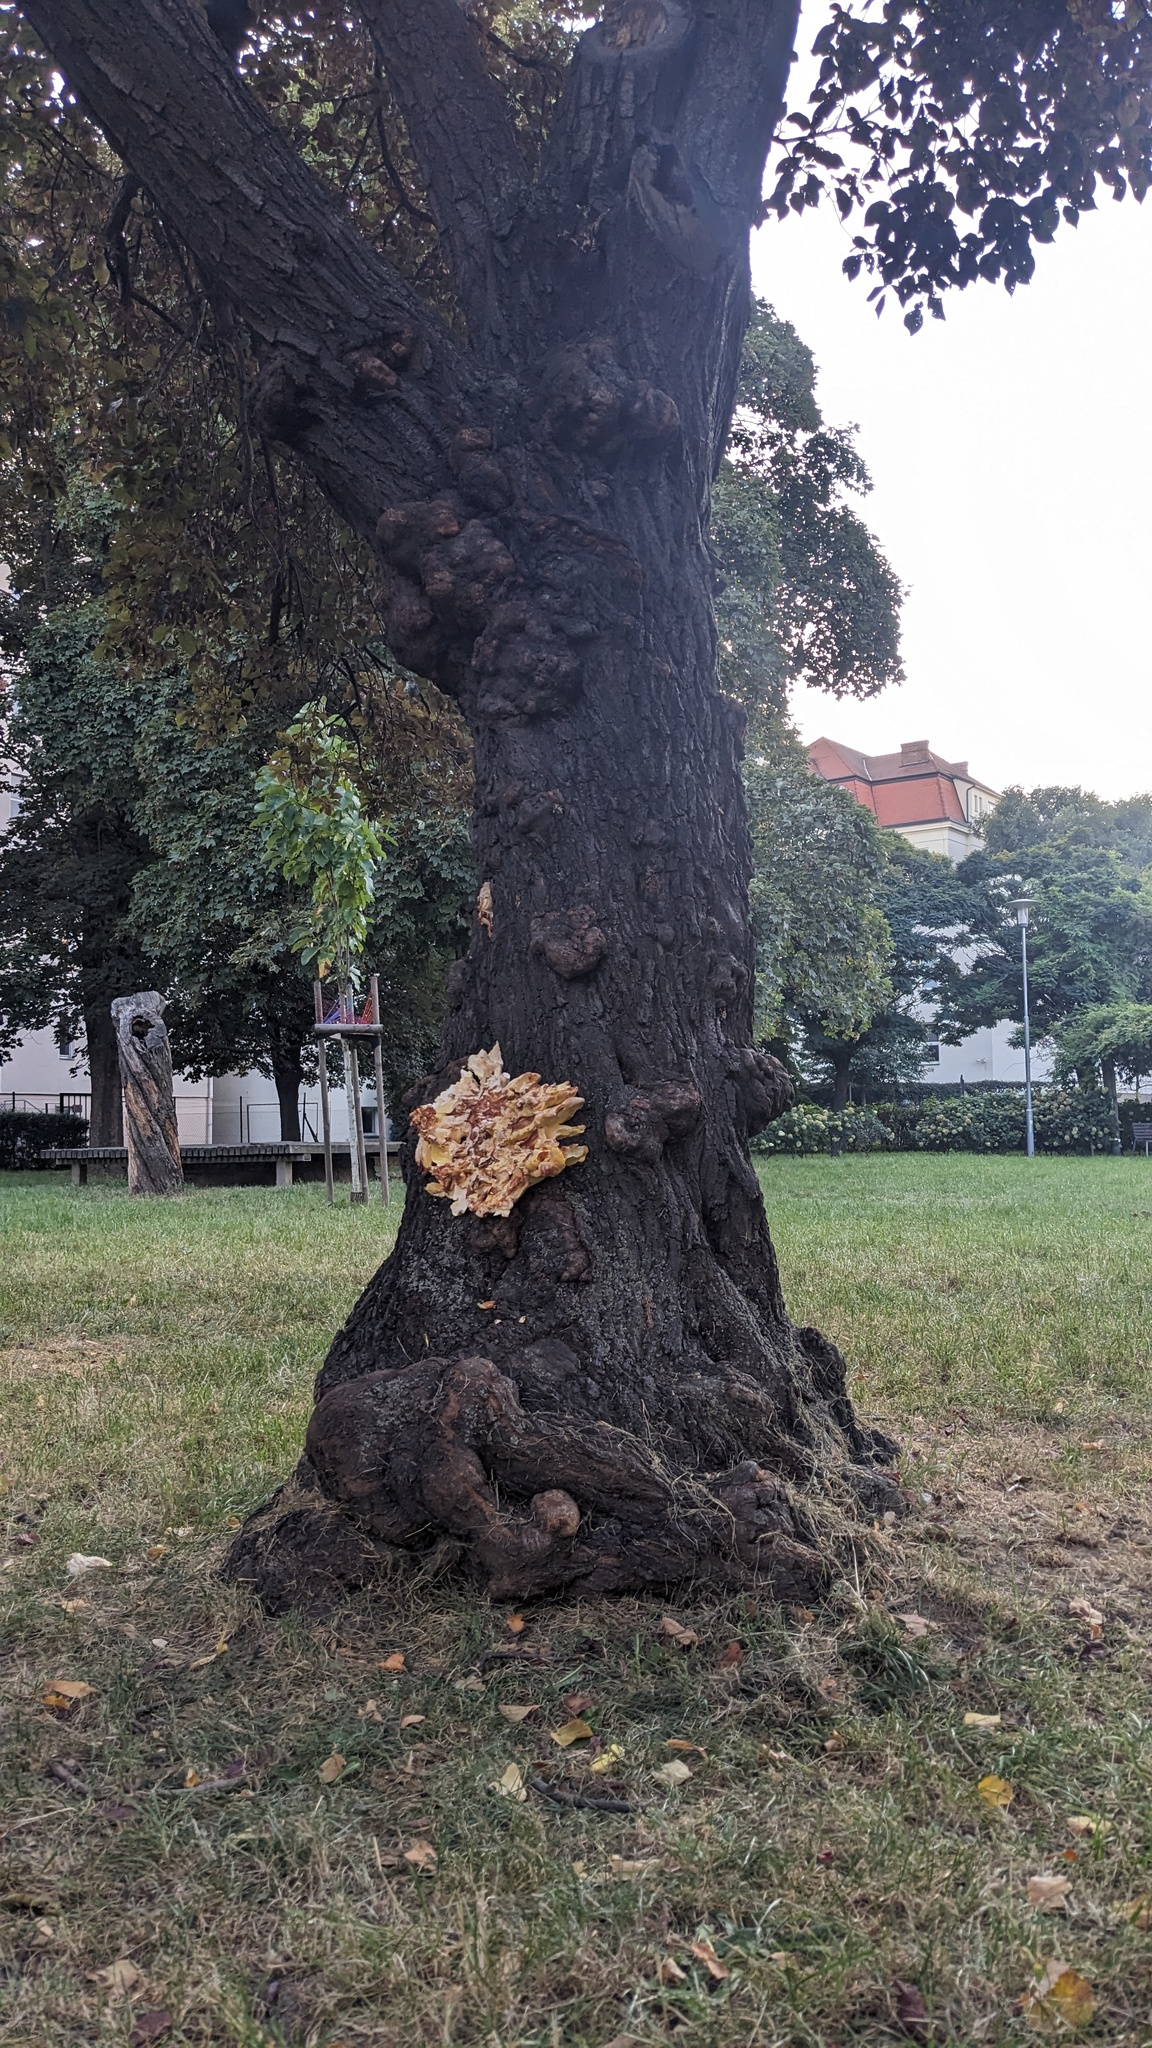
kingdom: Fungi
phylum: Basidiomycota
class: Agaricomycetes
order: Polyporales
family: Laetiporaceae
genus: Laetiporus
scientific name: Laetiporus sulphureus
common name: Chicken of the woods
